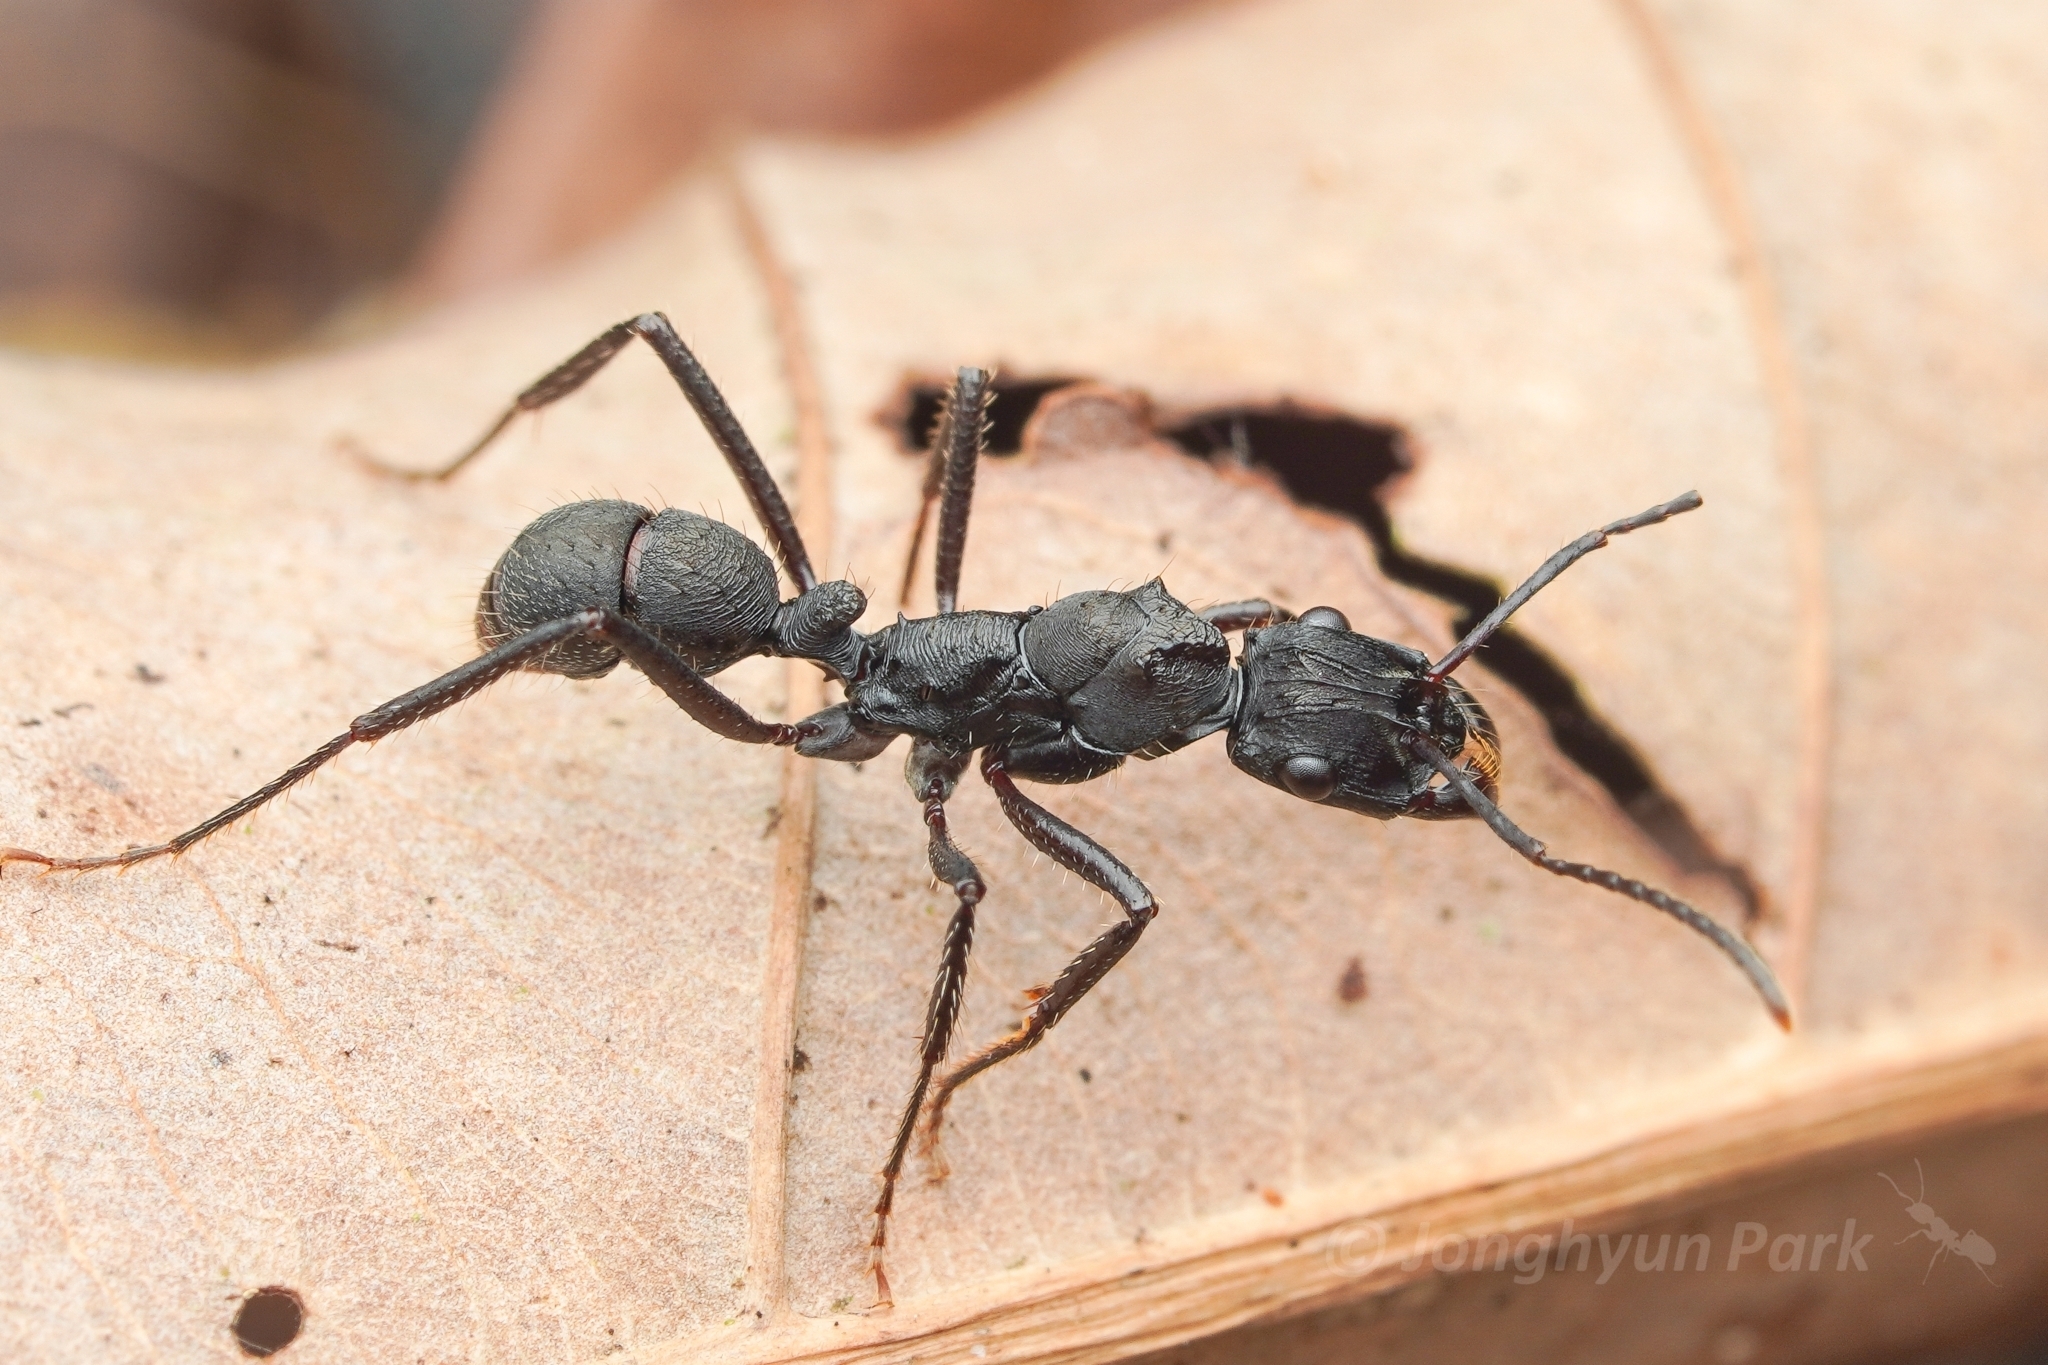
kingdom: Animalia
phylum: Arthropoda
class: Insecta
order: Hymenoptera
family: Formicidae
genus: Ectatomma
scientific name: Ectatomma lugens
